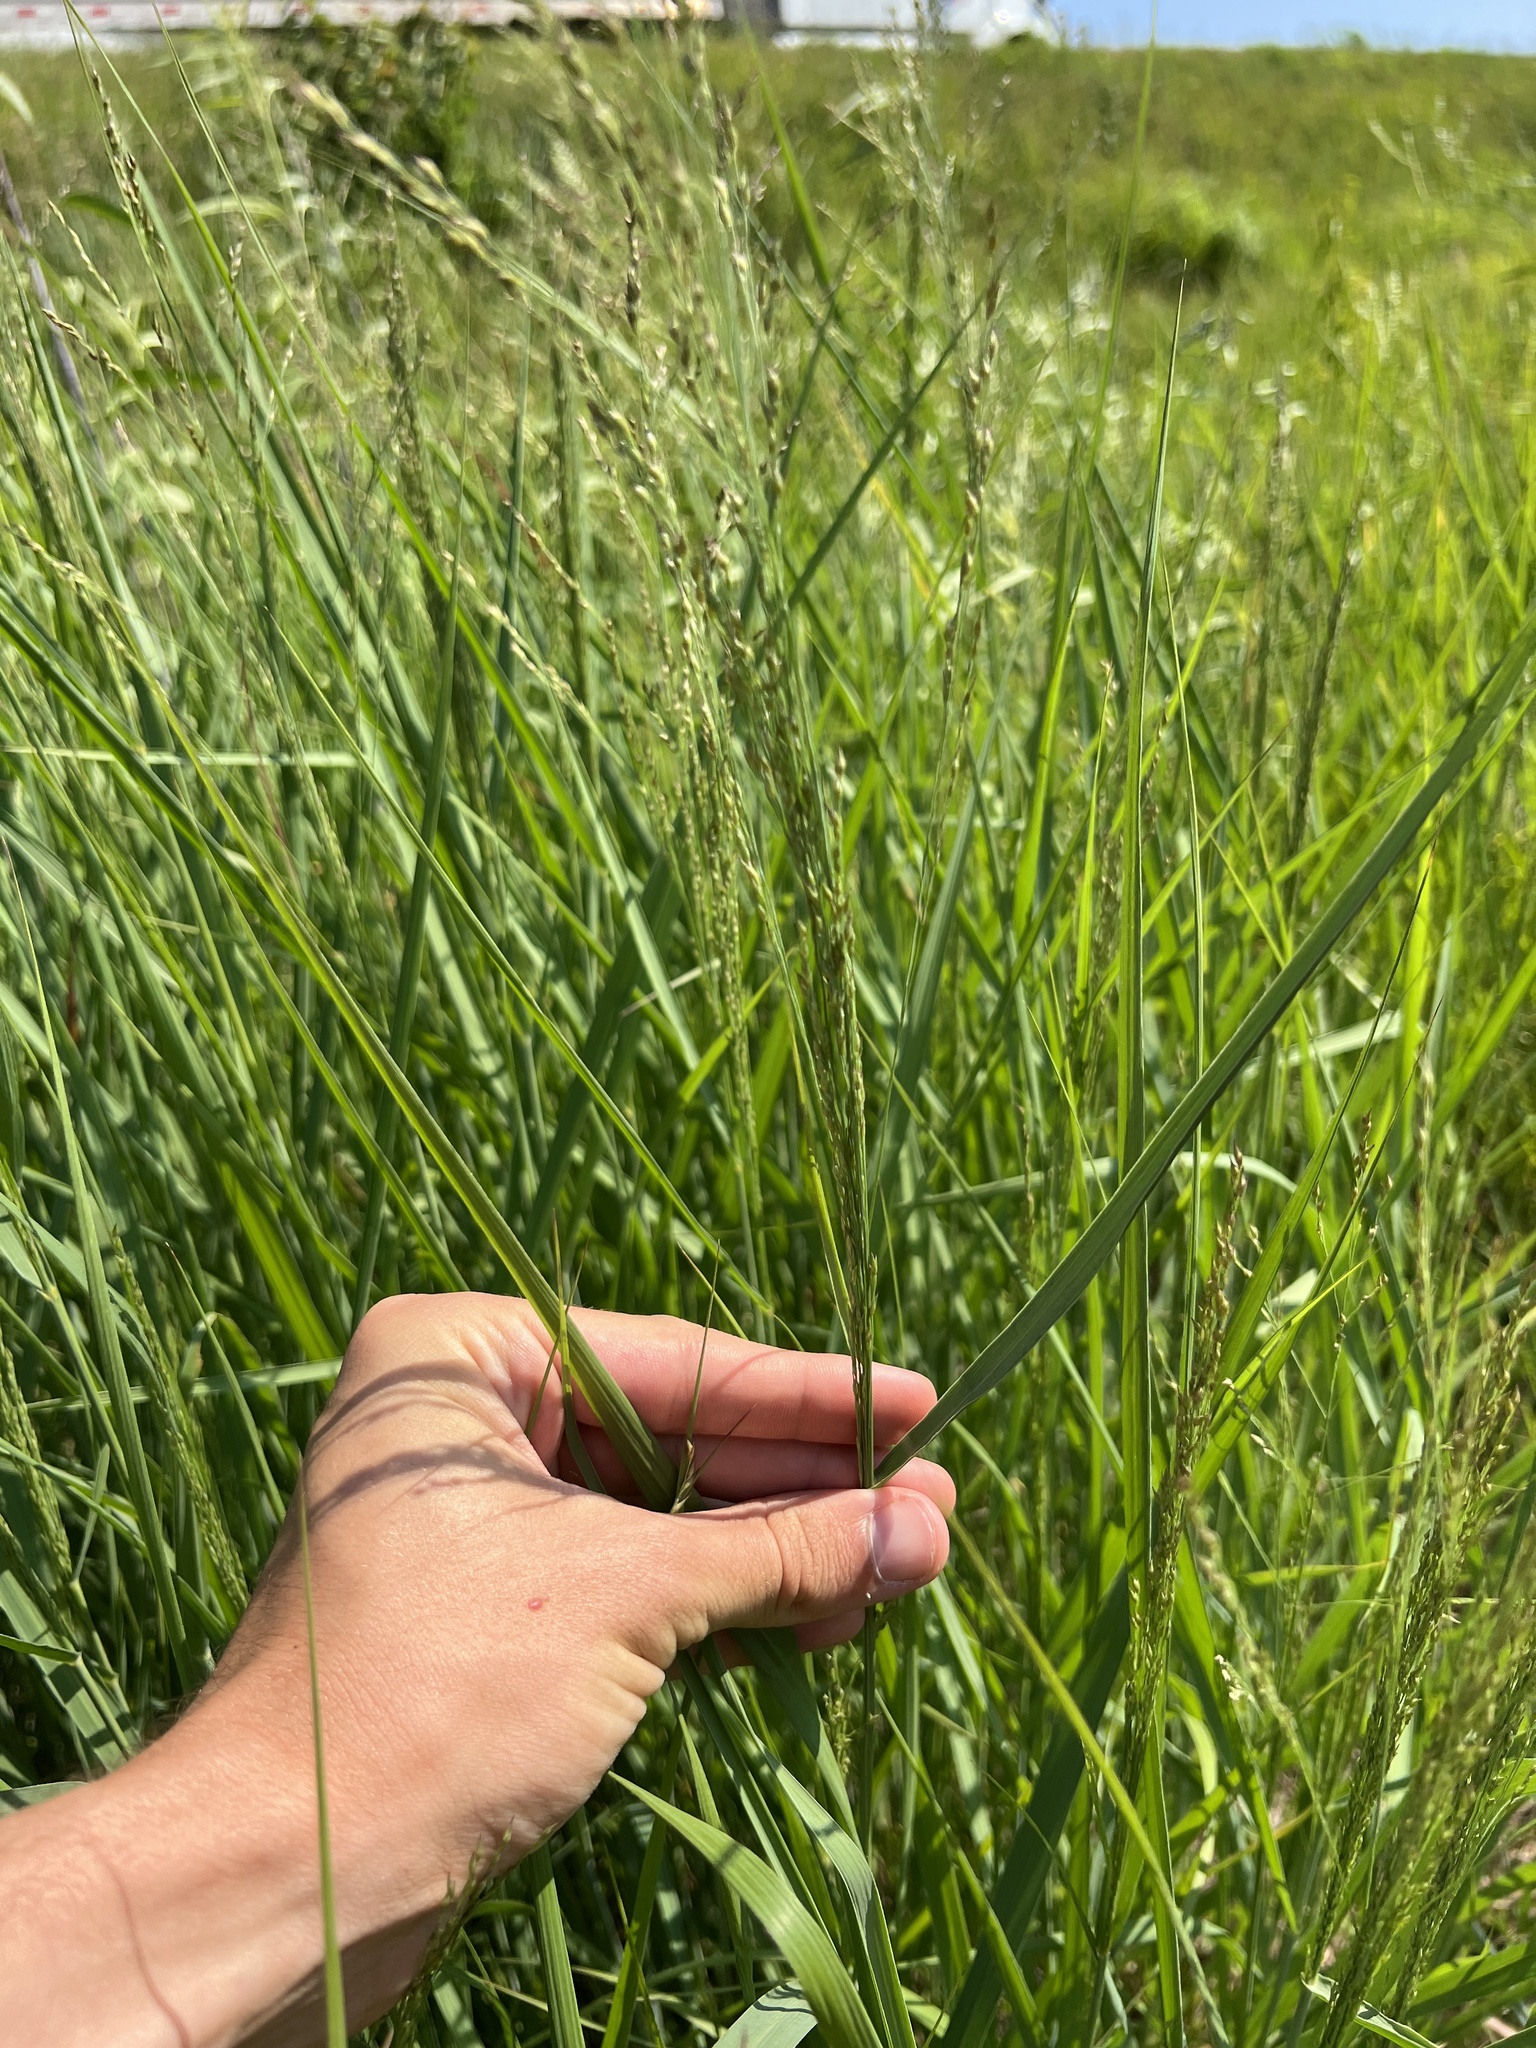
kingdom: Plantae
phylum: Tracheophyta
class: Liliopsida
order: Poales
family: Poaceae
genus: Panicum
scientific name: Panicum virgatum
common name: Switchgrass
